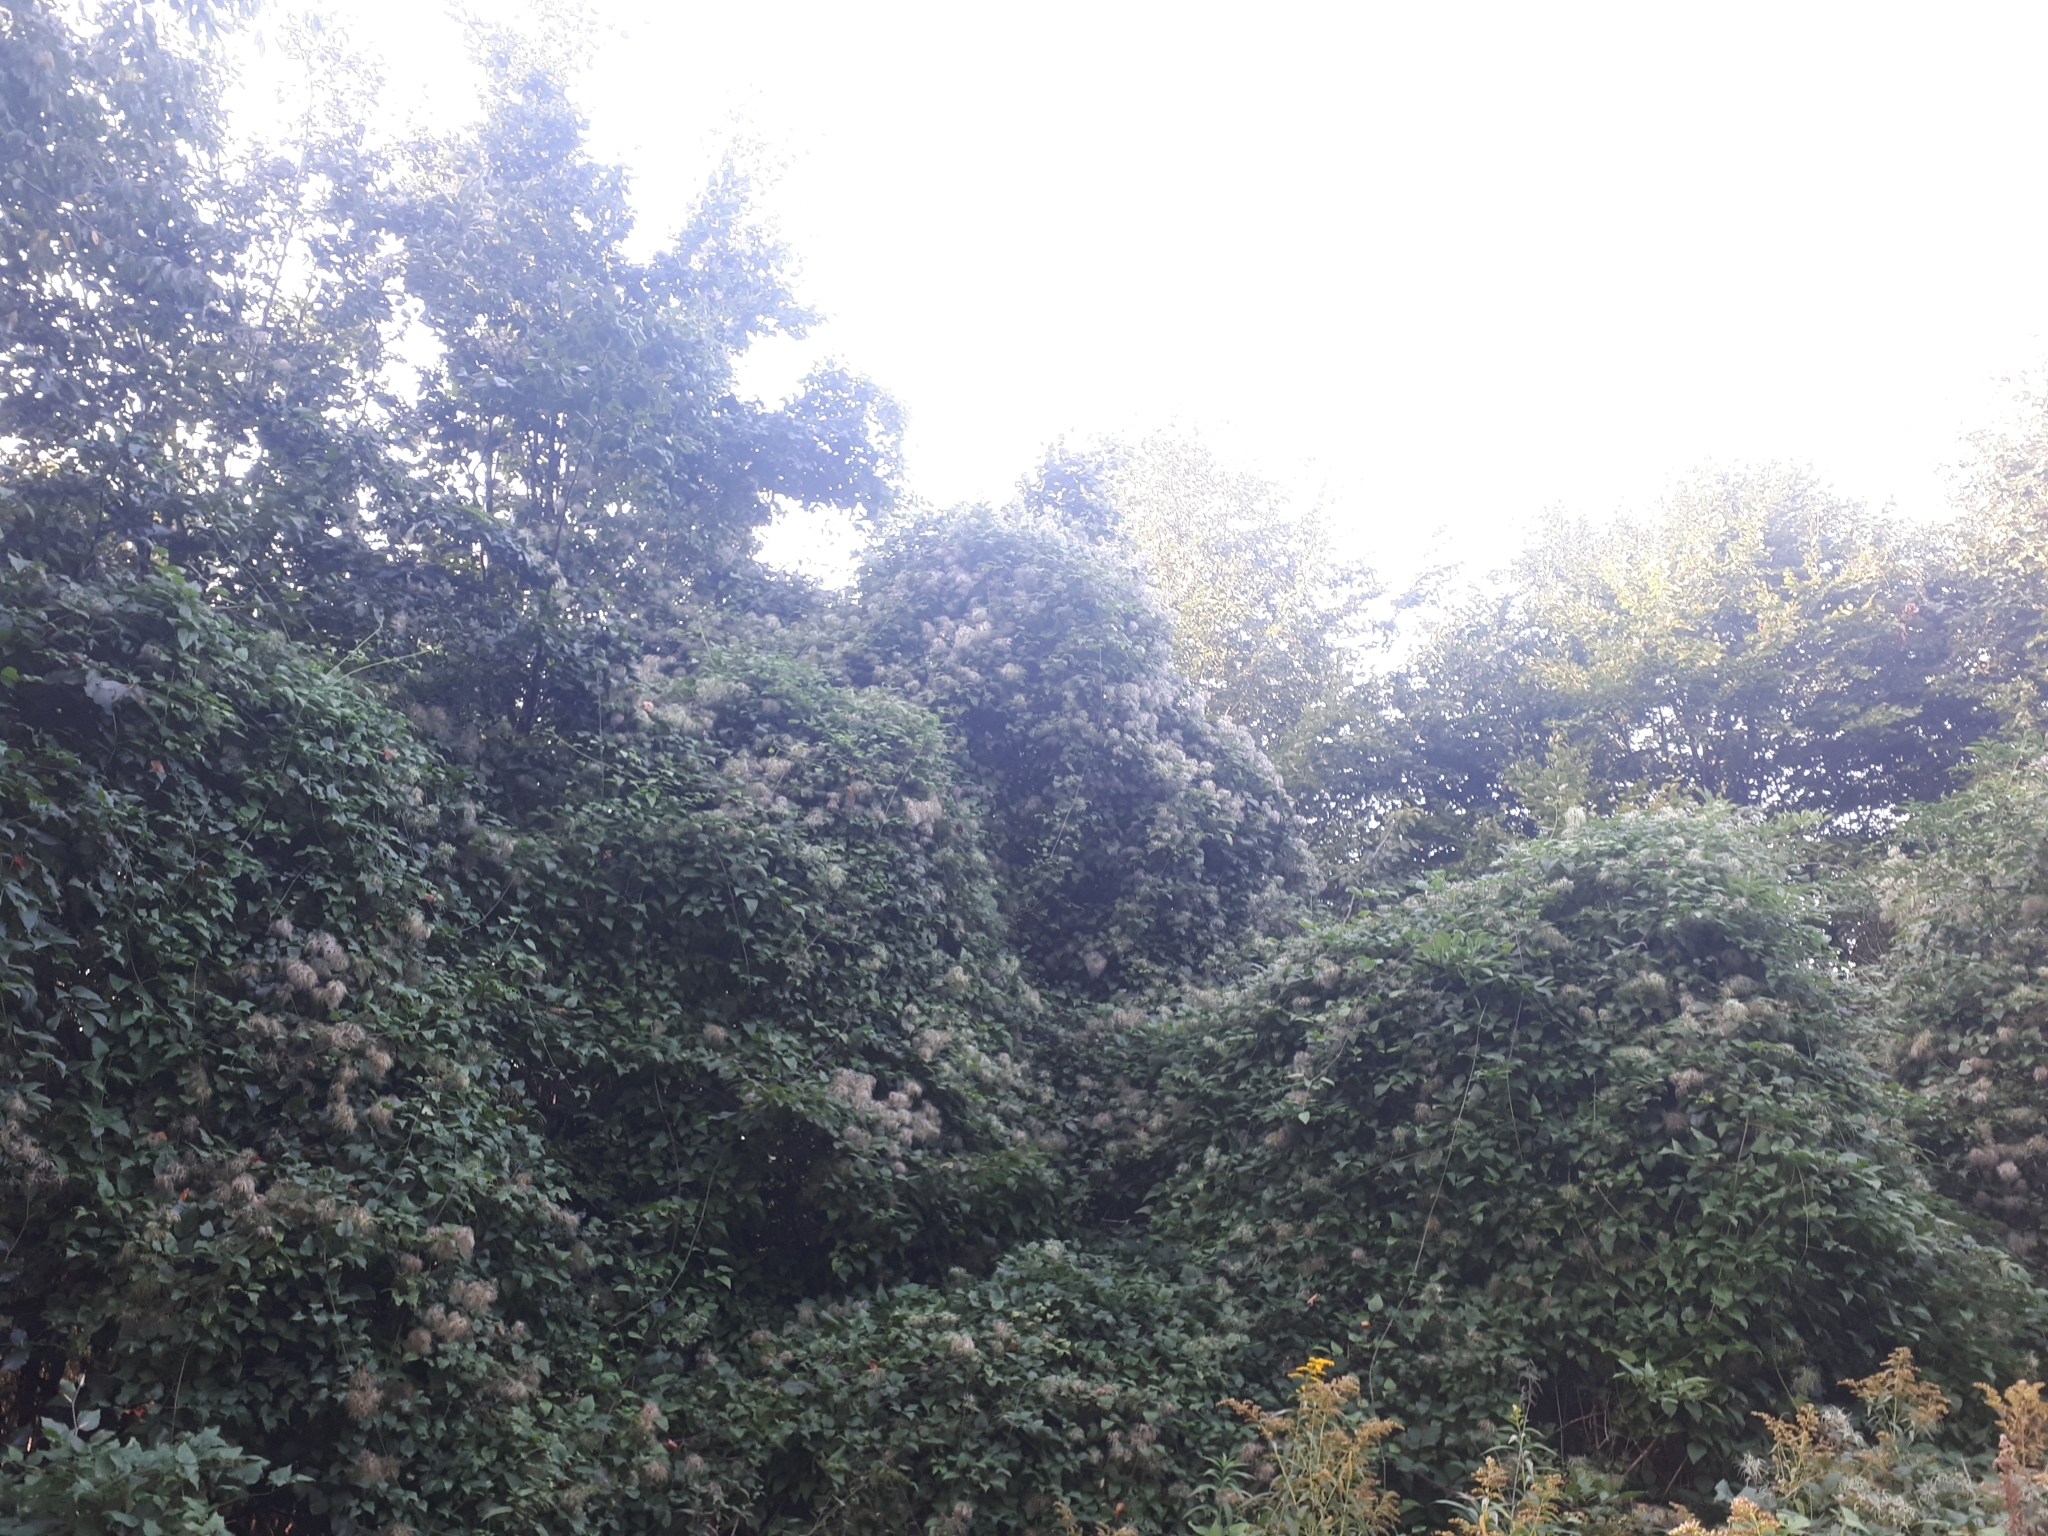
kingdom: Plantae
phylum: Tracheophyta
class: Magnoliopsida
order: Ranunculales
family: Ranunculaceae
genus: Clematis
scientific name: Clematis vitalba
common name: Evergreen clematis
